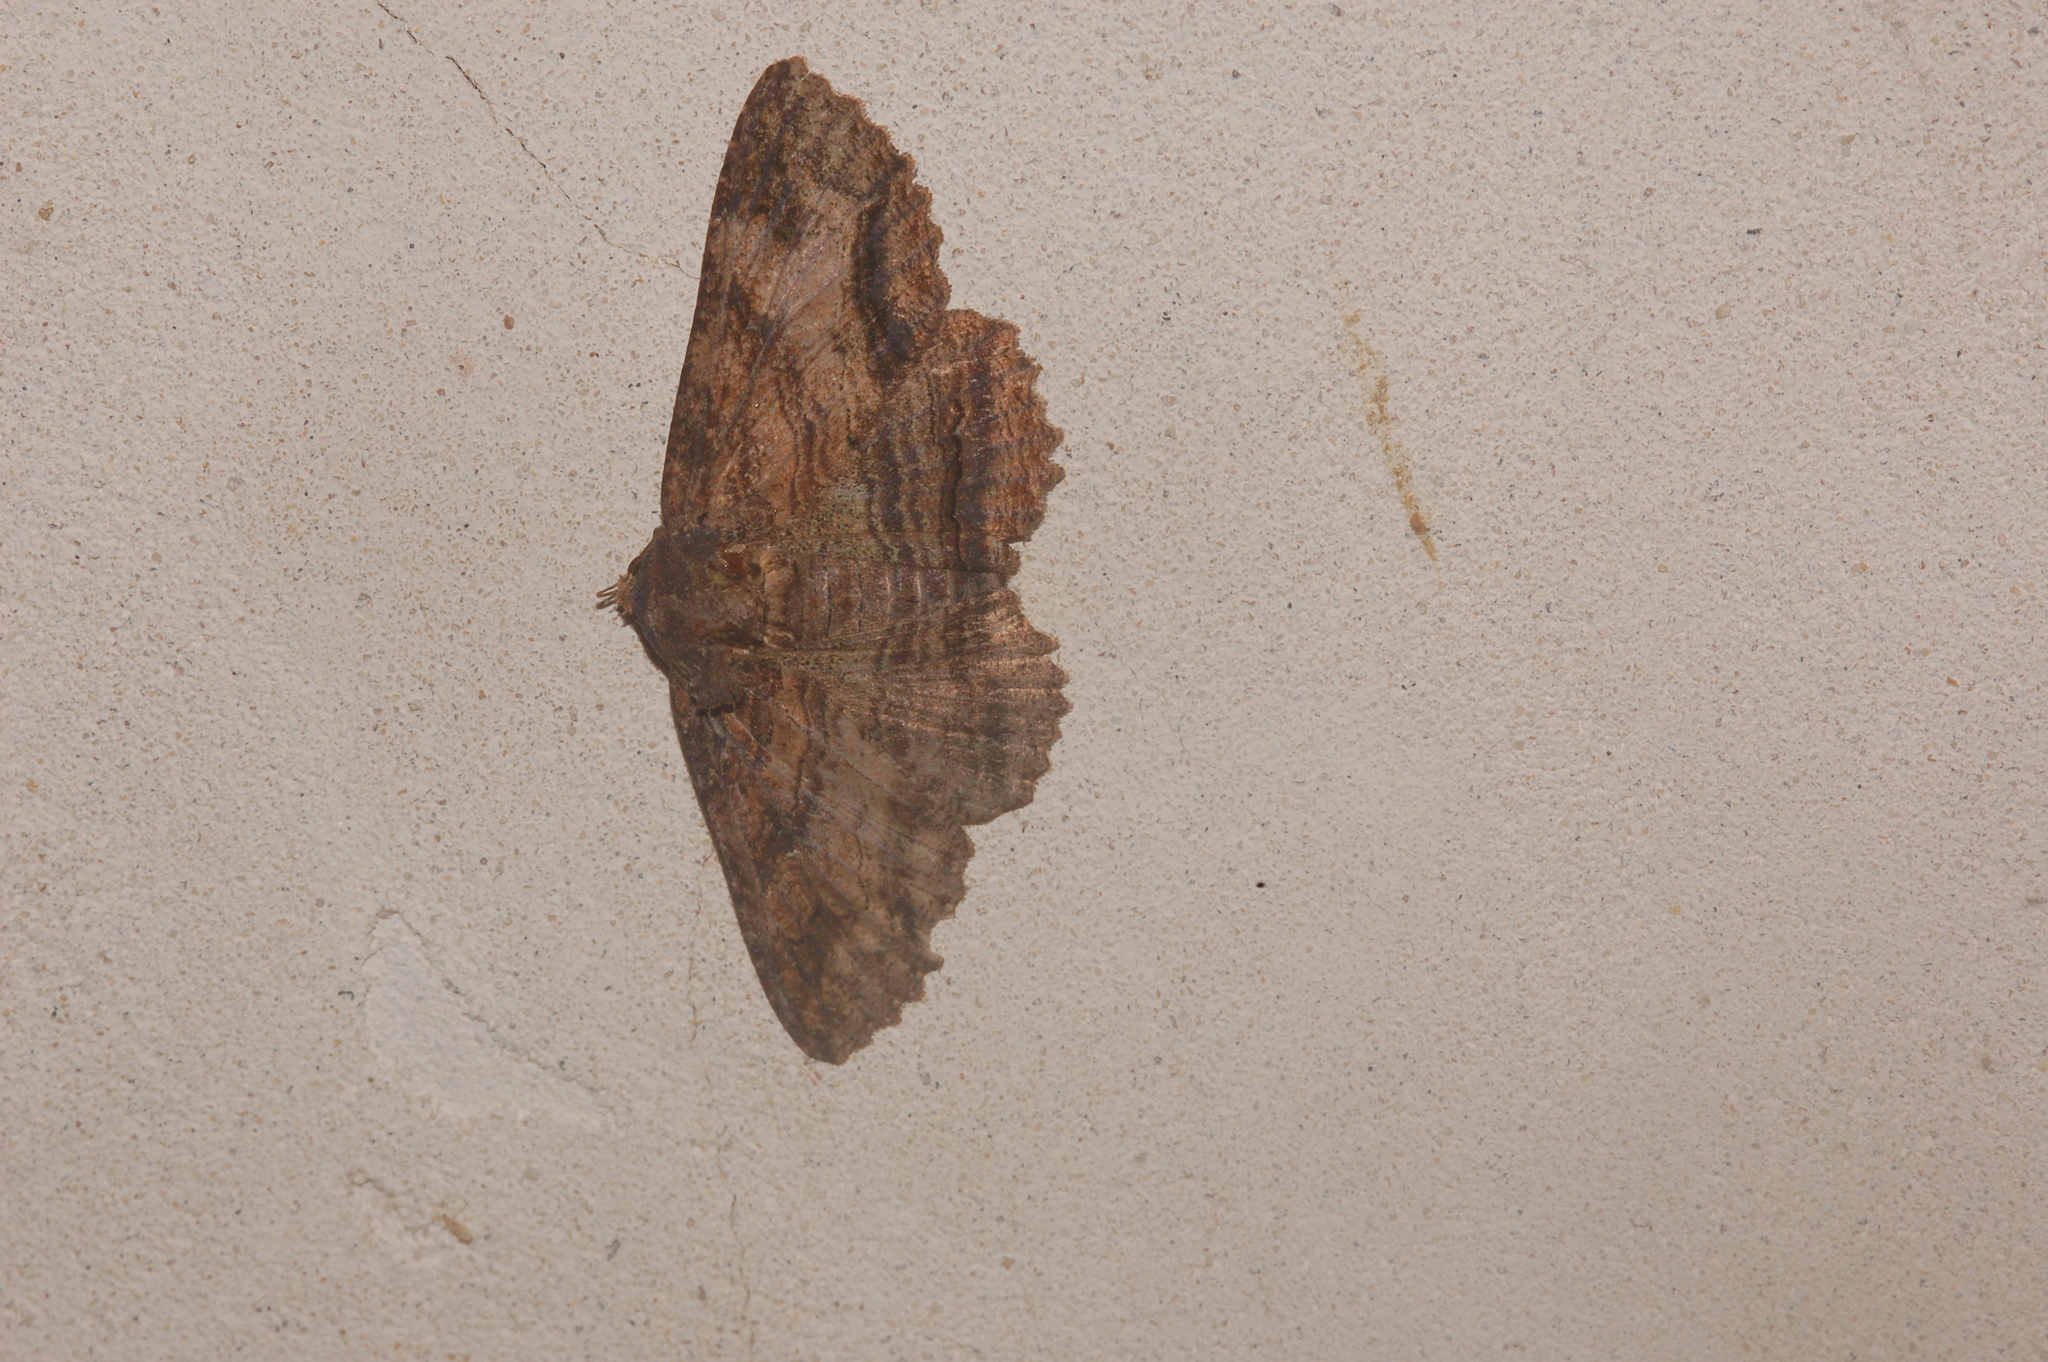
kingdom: Animalia
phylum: Arthropoda
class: Insecta
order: Lepidoptera
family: Erebidae
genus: Zale
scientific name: Zale lunata
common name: Lunate zale moth
